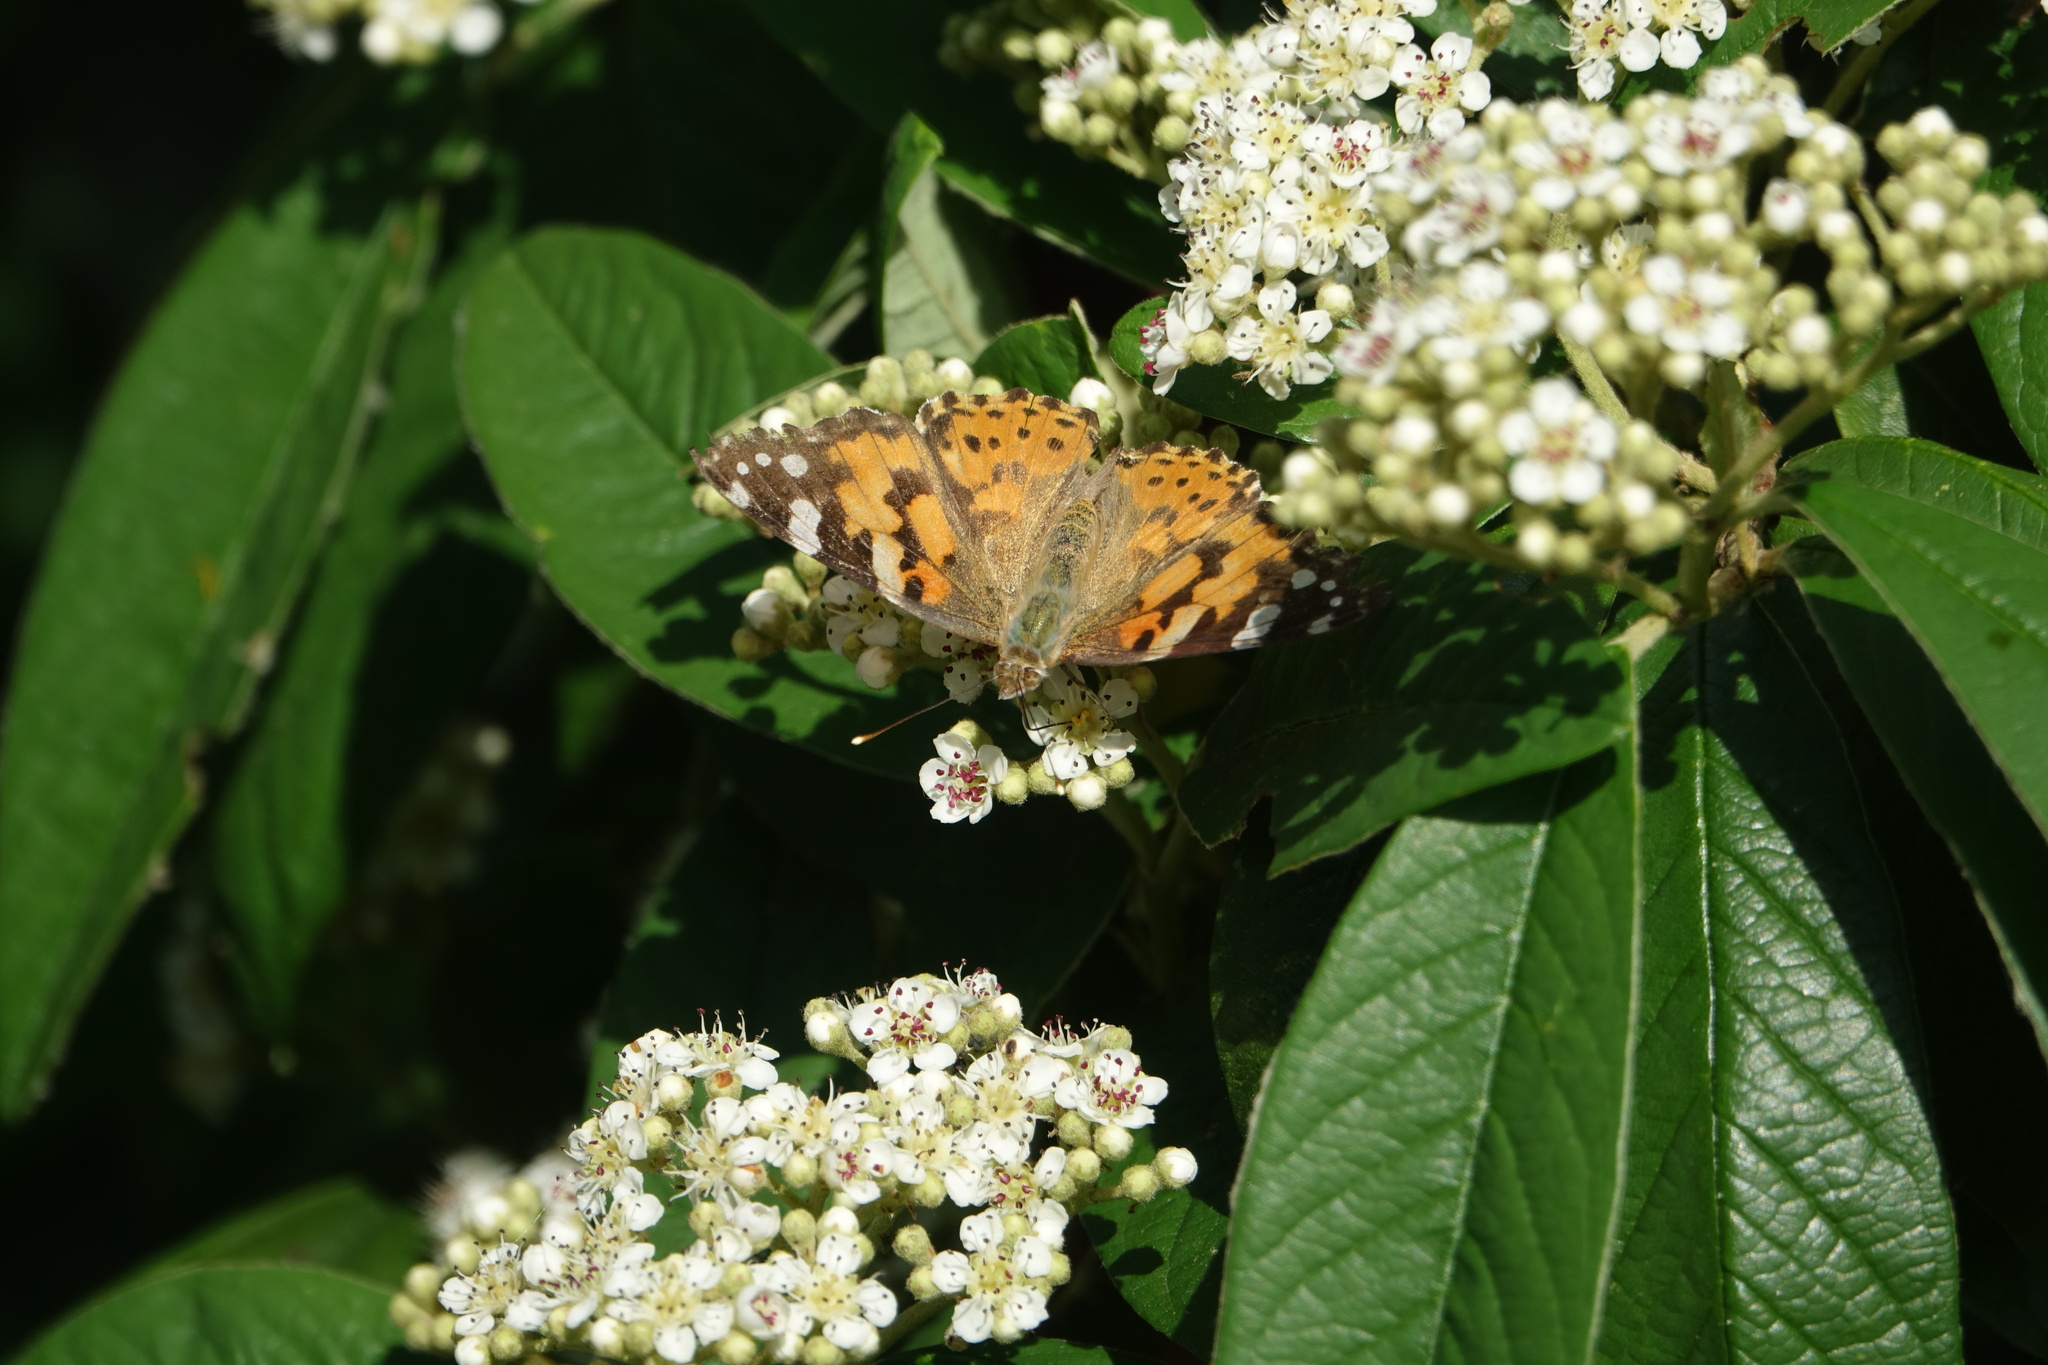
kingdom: Animalia
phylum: Arthropoda
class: Insecta
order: Lepidoptera
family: Nymphalidae
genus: Vanessa
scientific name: Vanessa cardui
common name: Painted lady
